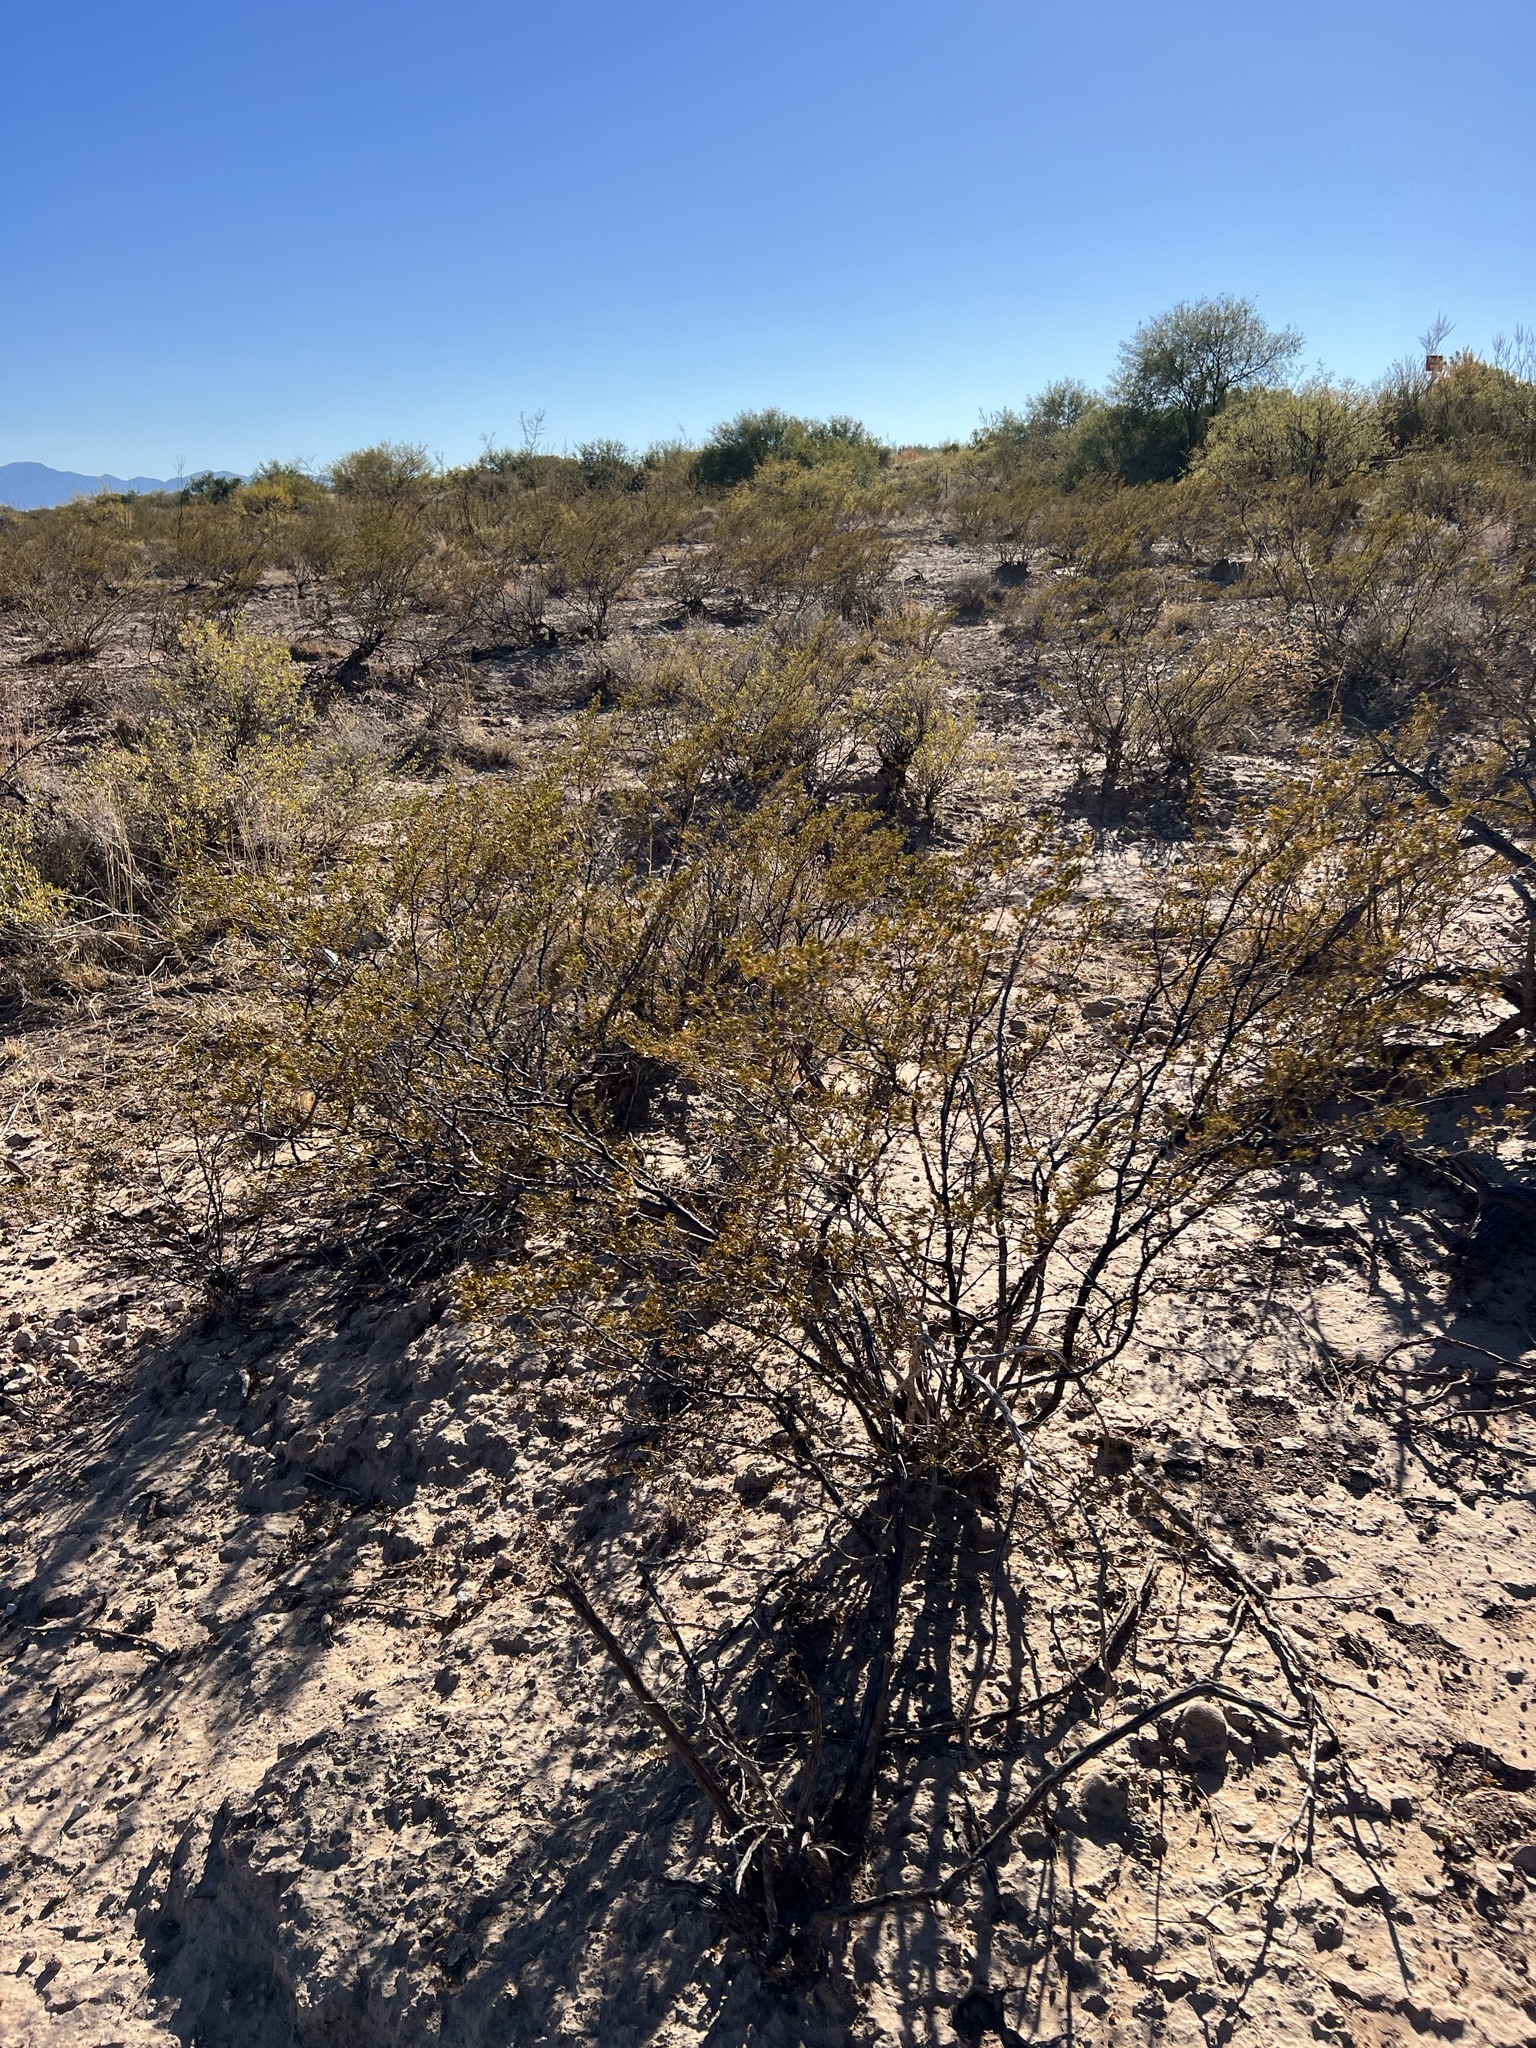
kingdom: Plantae
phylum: Tracheophyta
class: Magnoliopsida
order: Zygophyllales
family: Zygophyllaceae
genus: Larrea
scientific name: Larrea tridentata
